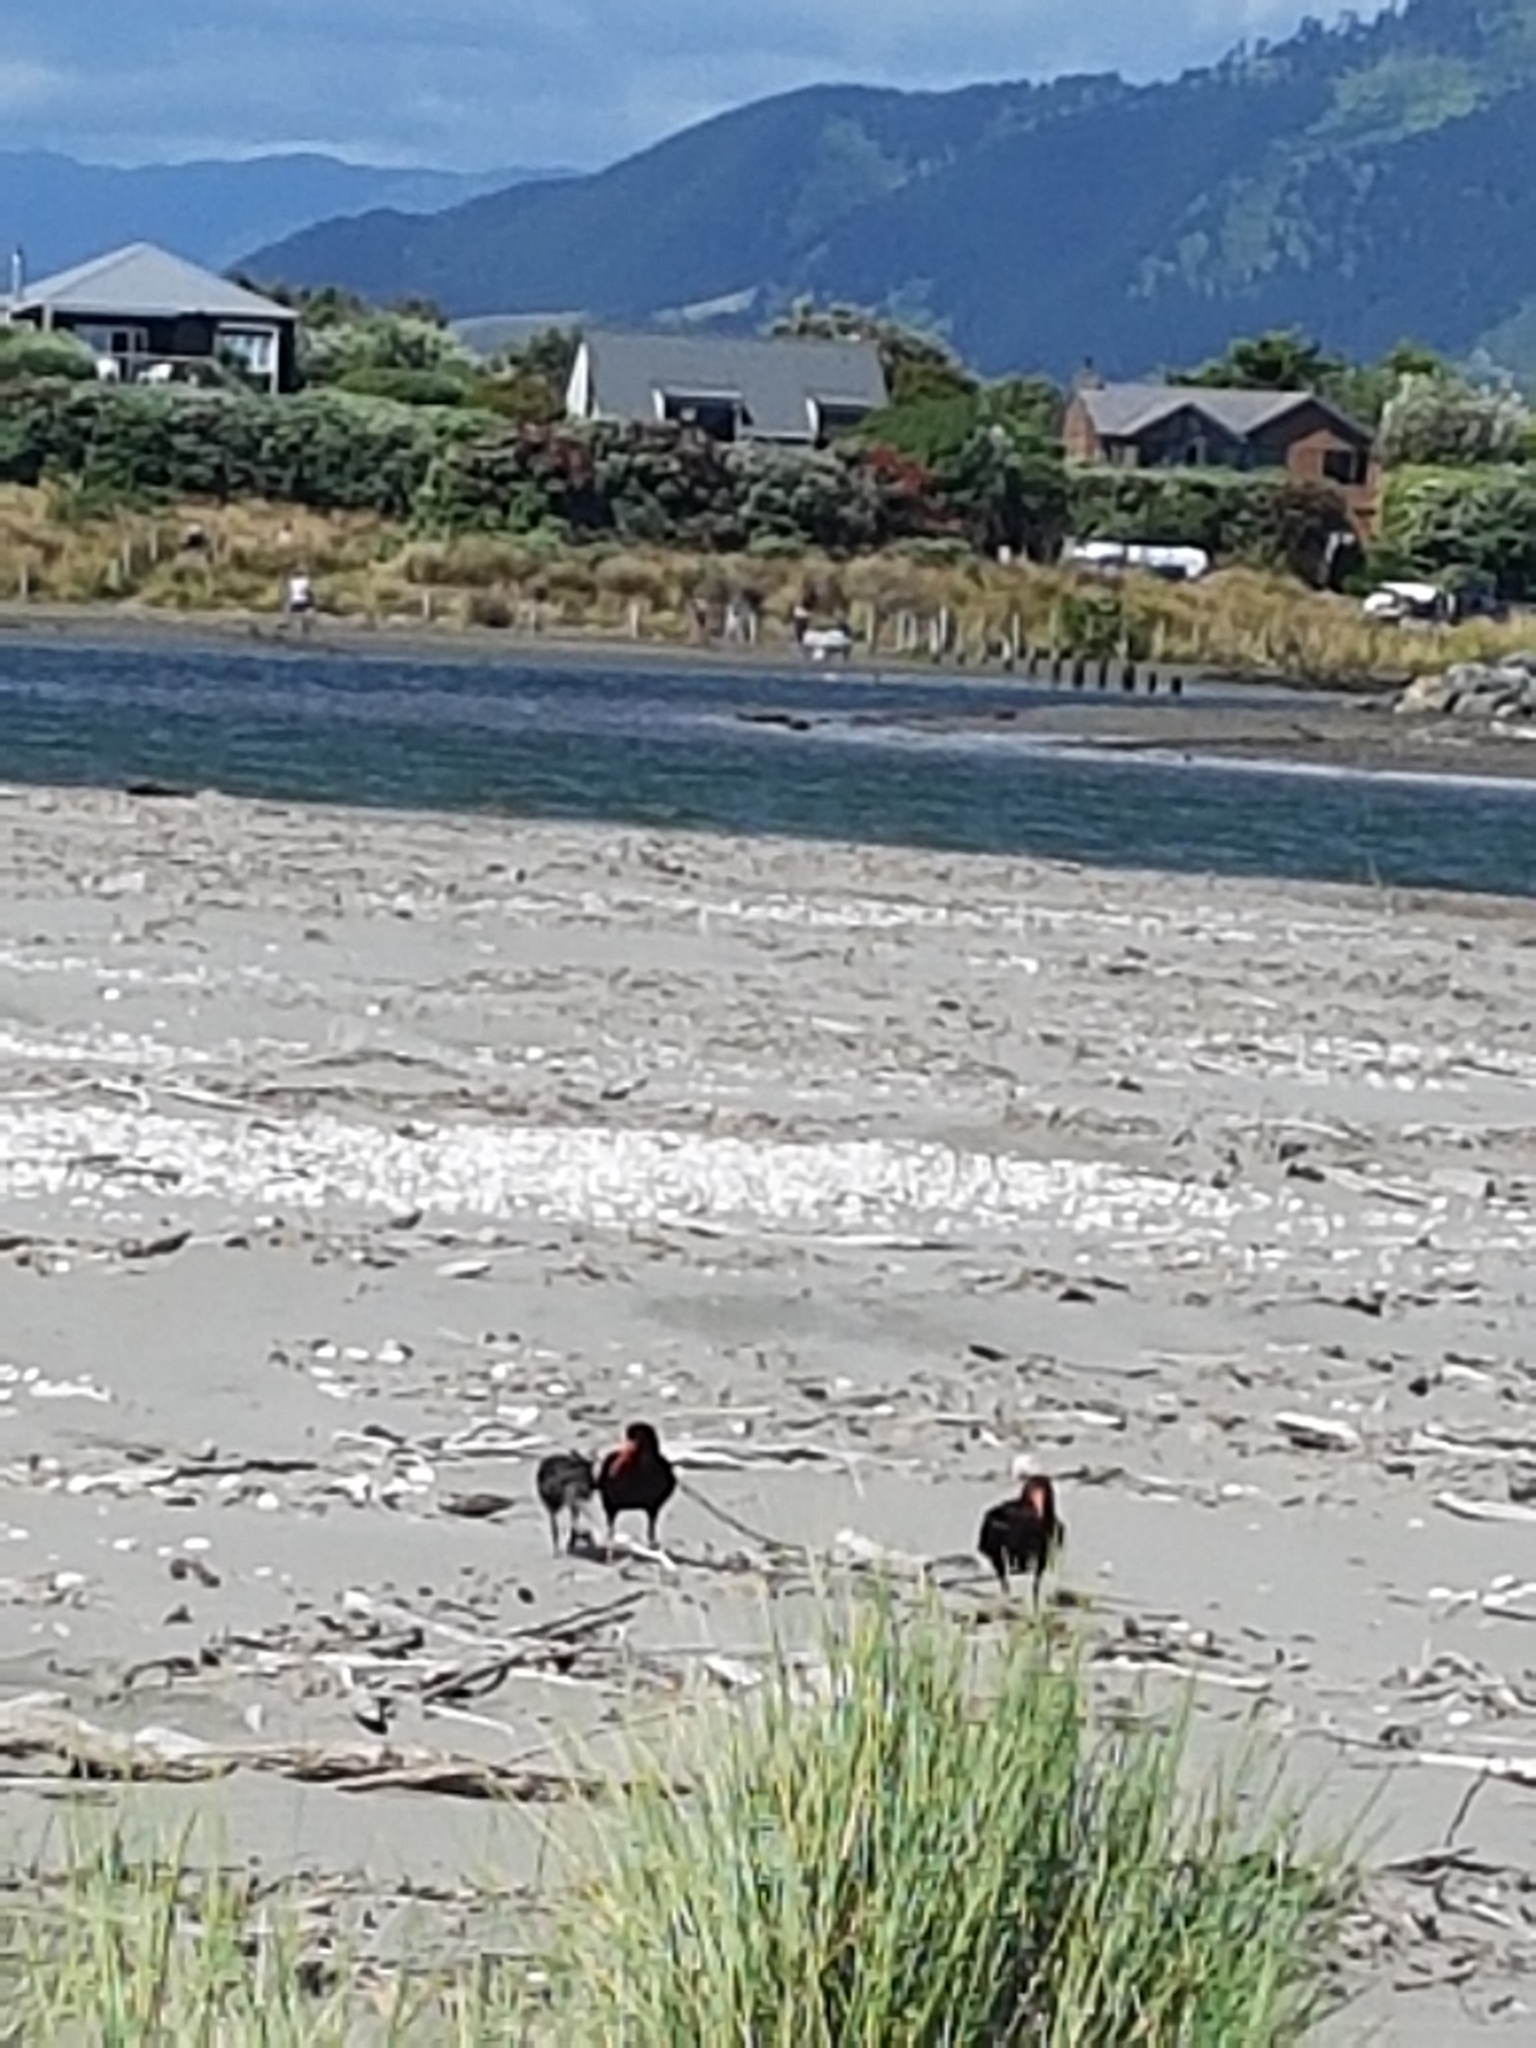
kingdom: Animalia
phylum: Chordata
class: Aves
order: Charadriiformes
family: Haematopodidae
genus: Haematopus
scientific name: Haematopus unicolor
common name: Variable oystercatcher
